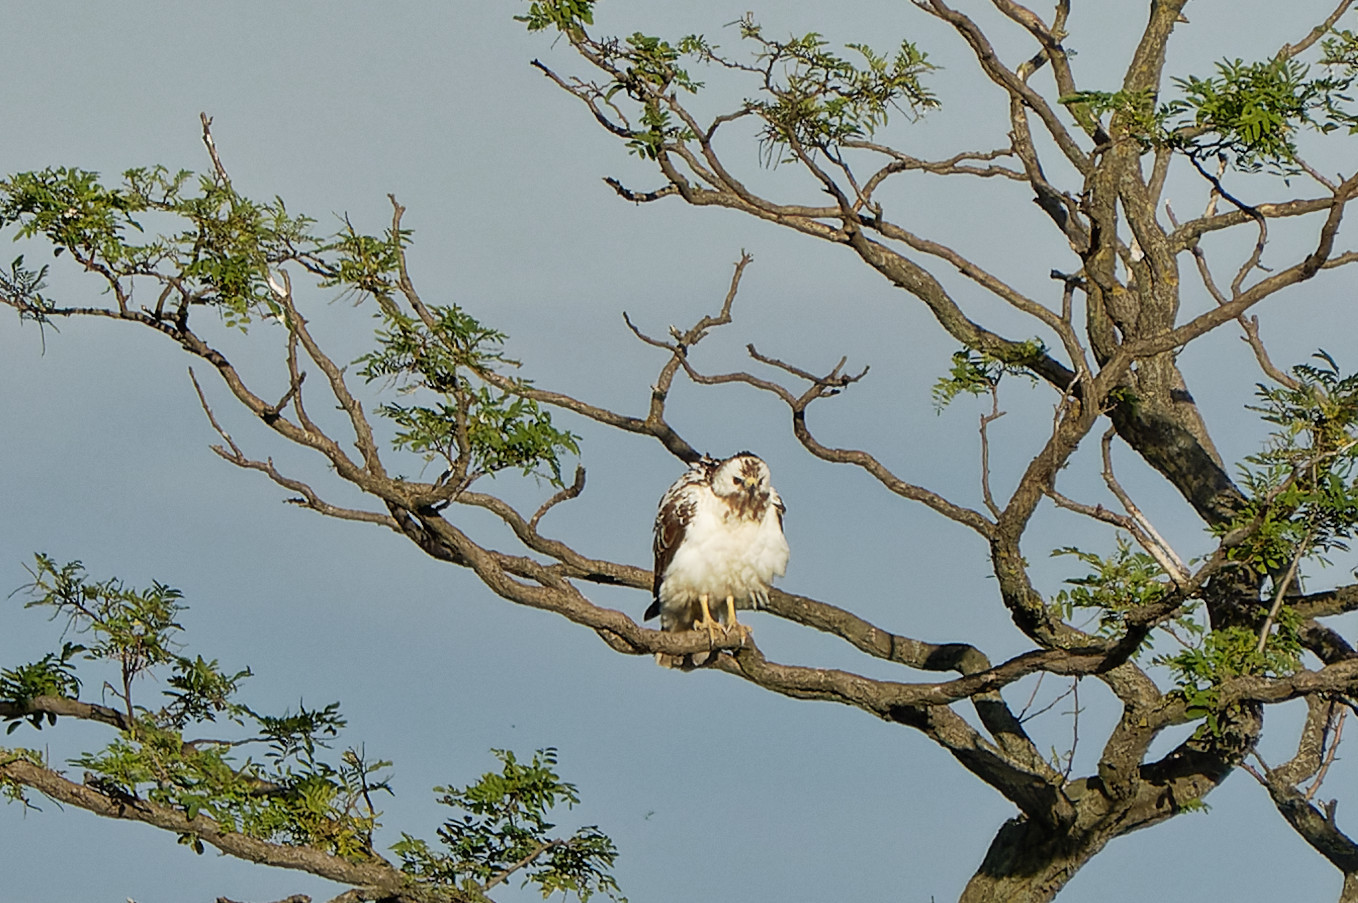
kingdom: Animalia
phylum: Chordata
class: Aves
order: Accipitriformes
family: Accipitridae
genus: Buteo
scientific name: Buteo buteo
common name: Common buzzard
